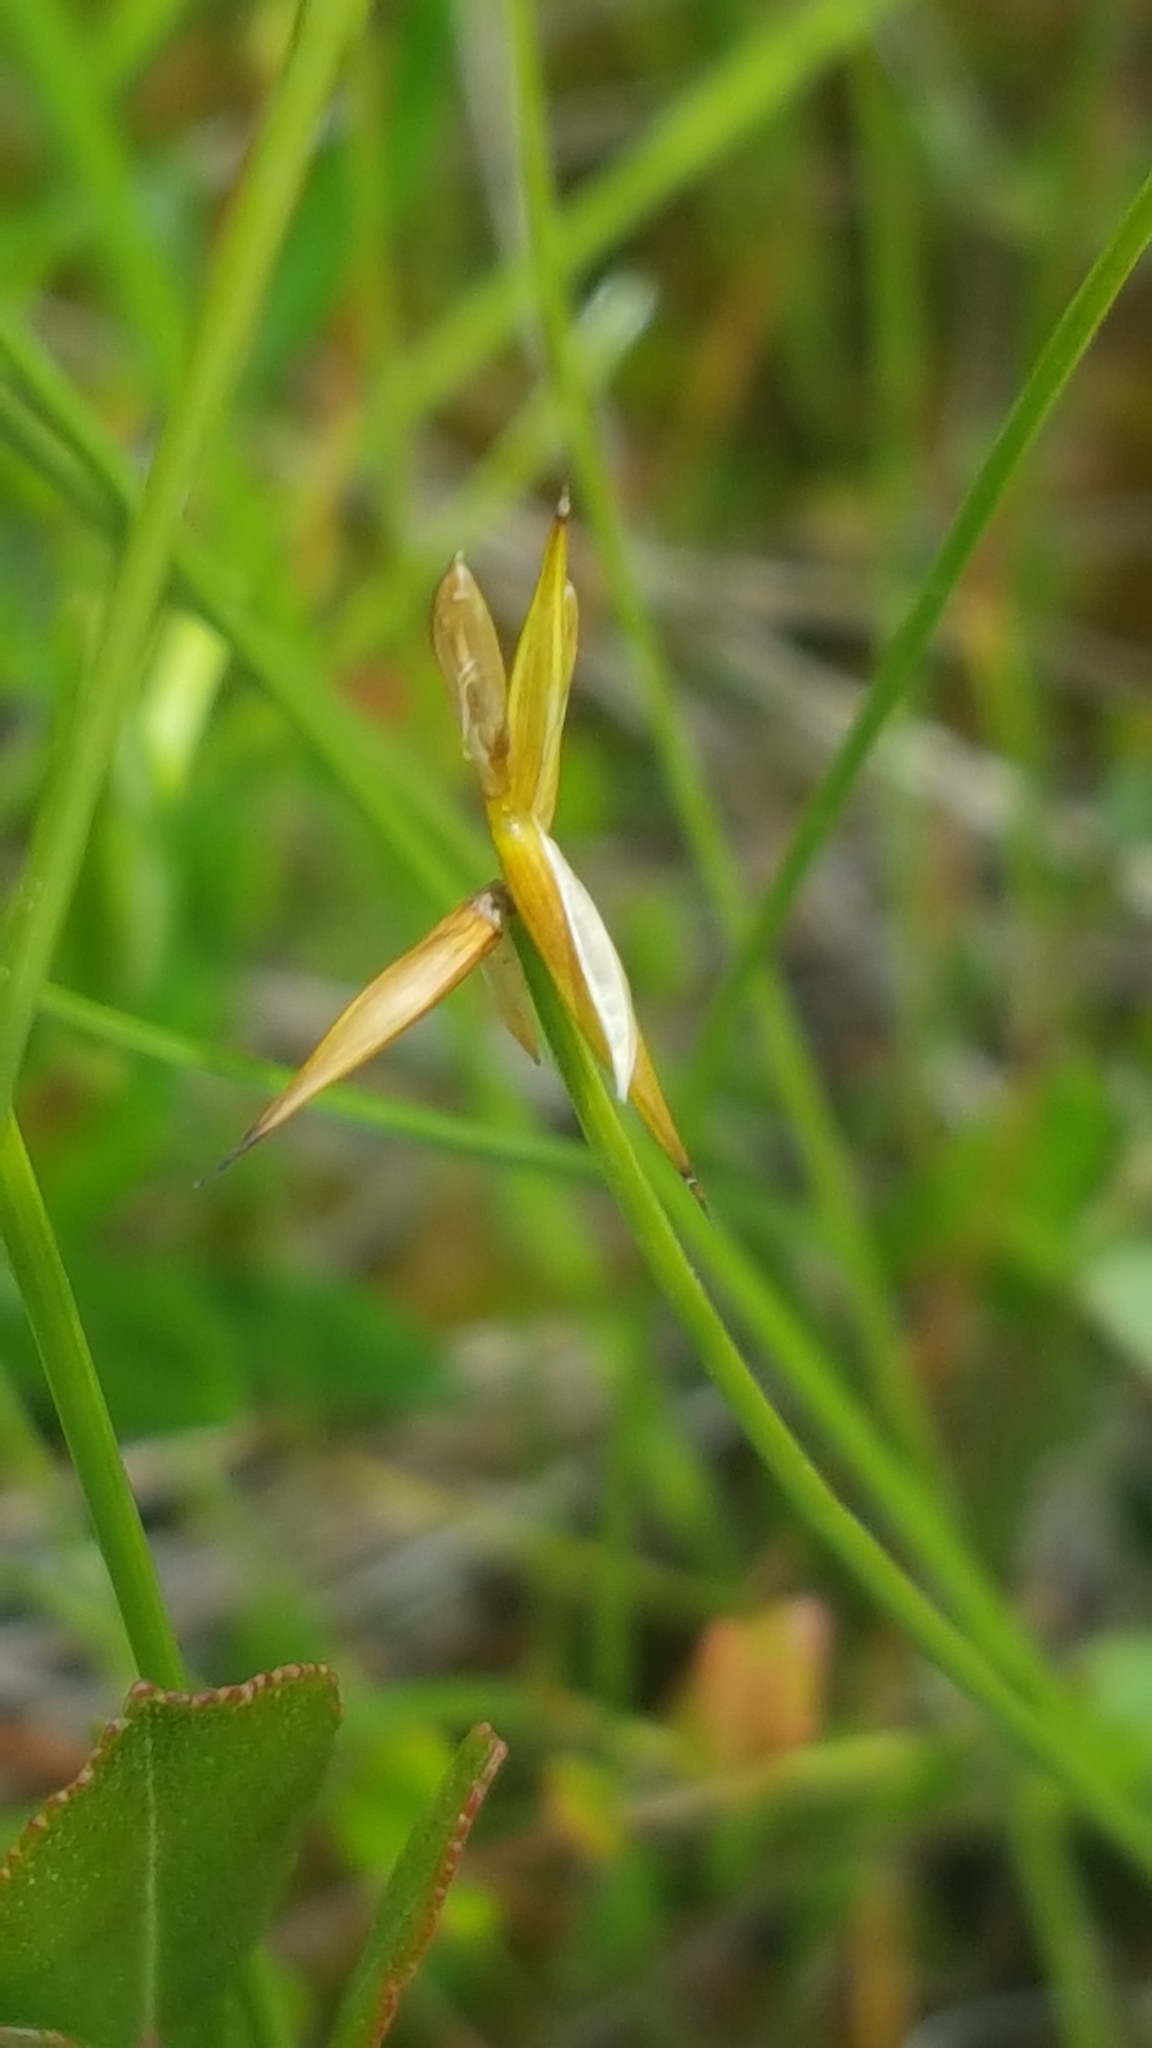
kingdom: Plantae
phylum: Tracheophyta
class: Liliopsida
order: Poales
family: Cyperaceae
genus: Carex
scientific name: Carex pauciflora
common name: Few-flowered sedge
